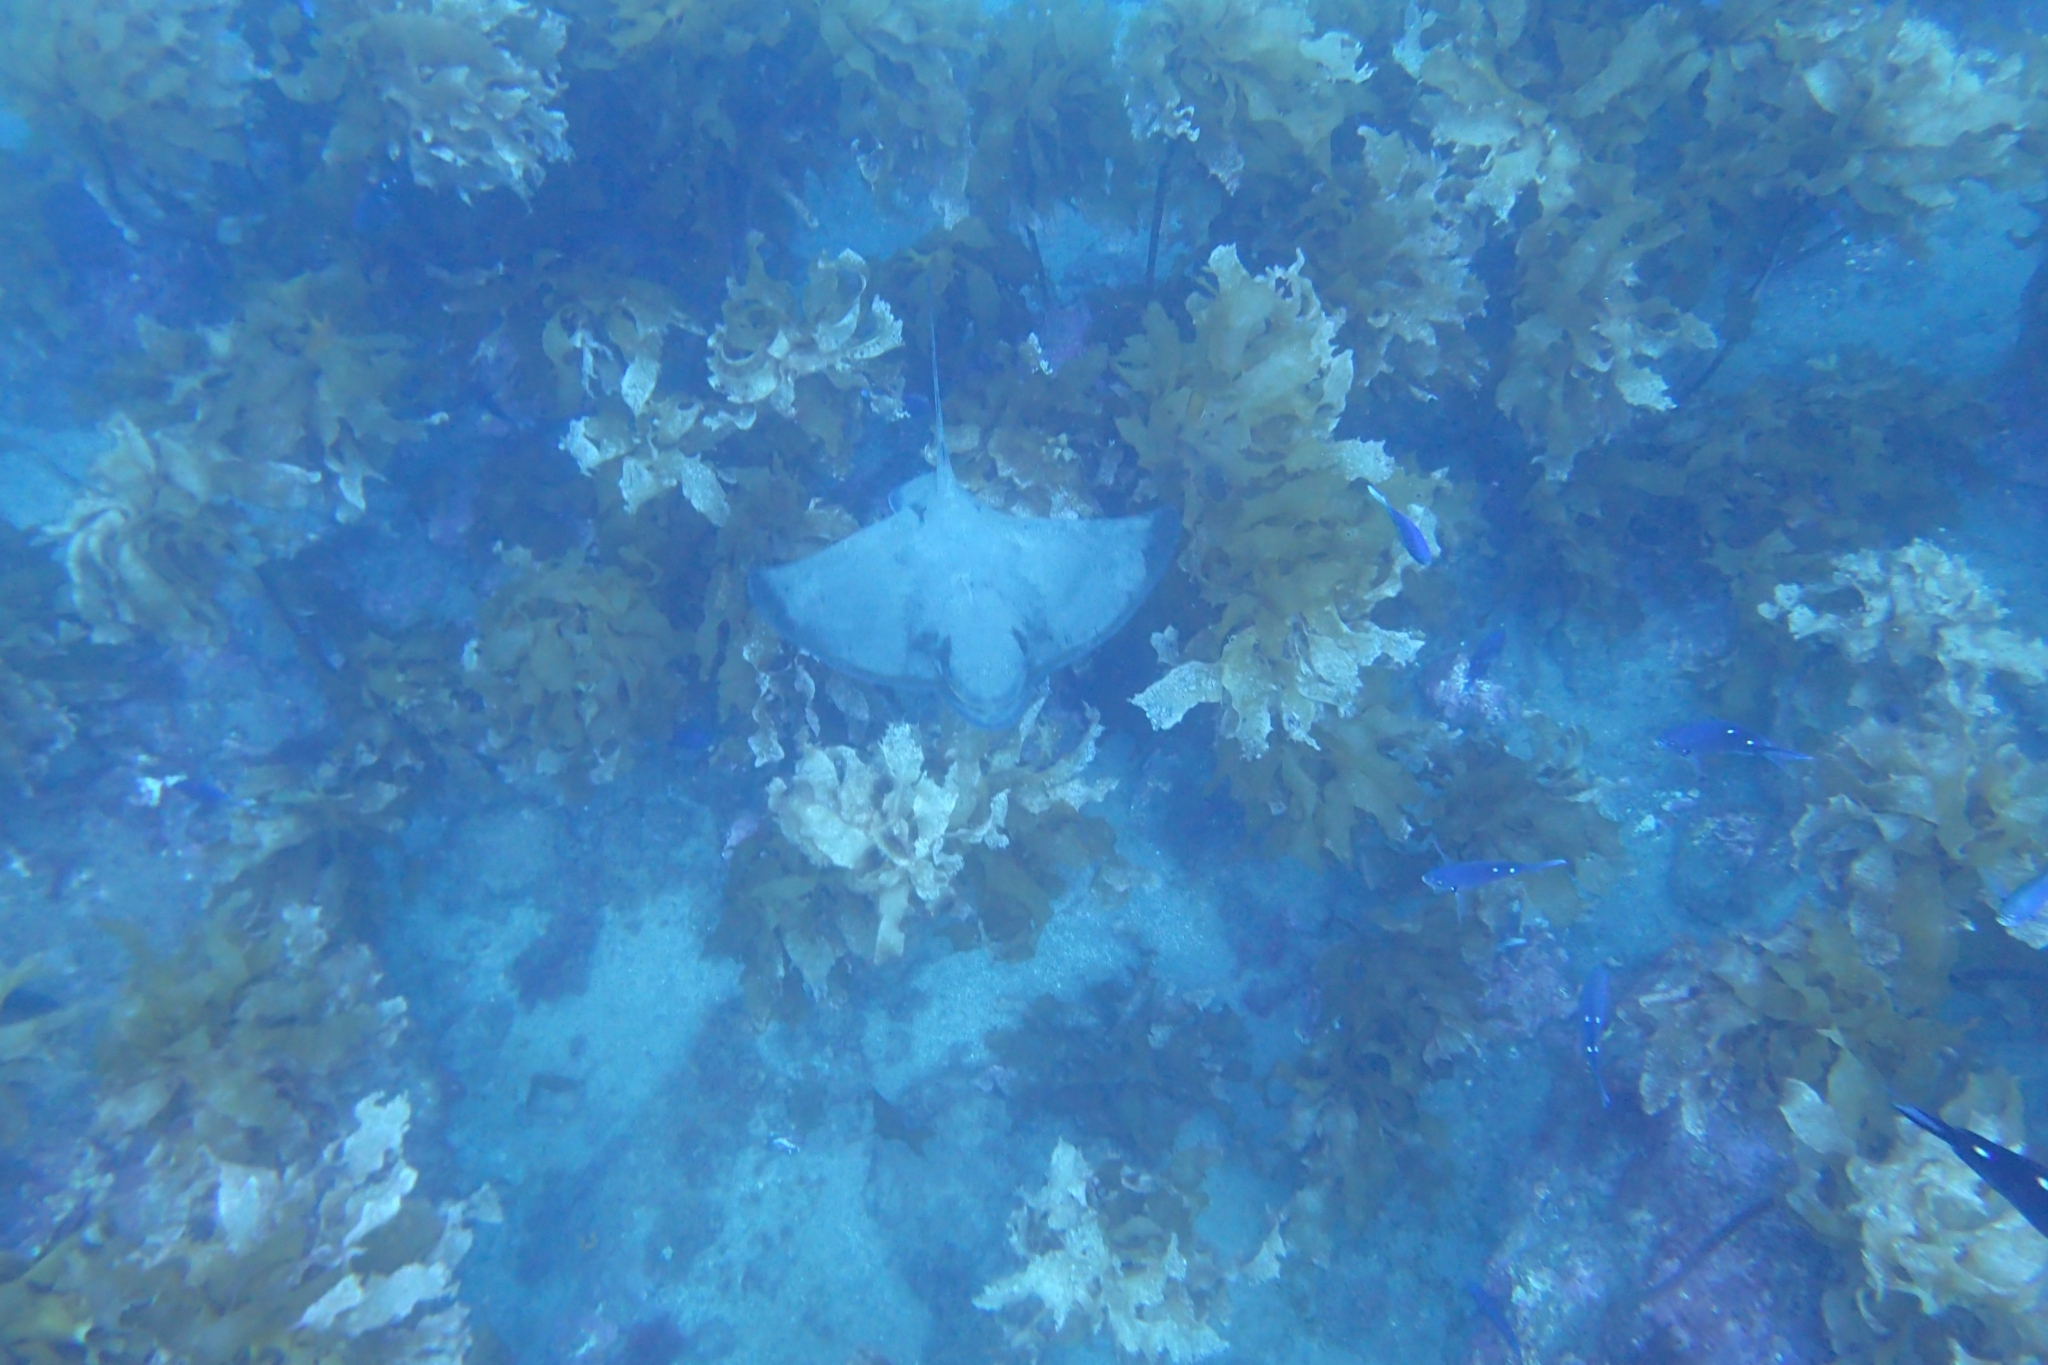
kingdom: Animalia
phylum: Chordata
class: Elasmobranchii
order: Myliobatiformes
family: Myliobatidae
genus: Myliobatis
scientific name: Myliobatis tenuicaudatus
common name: Eagle ray
